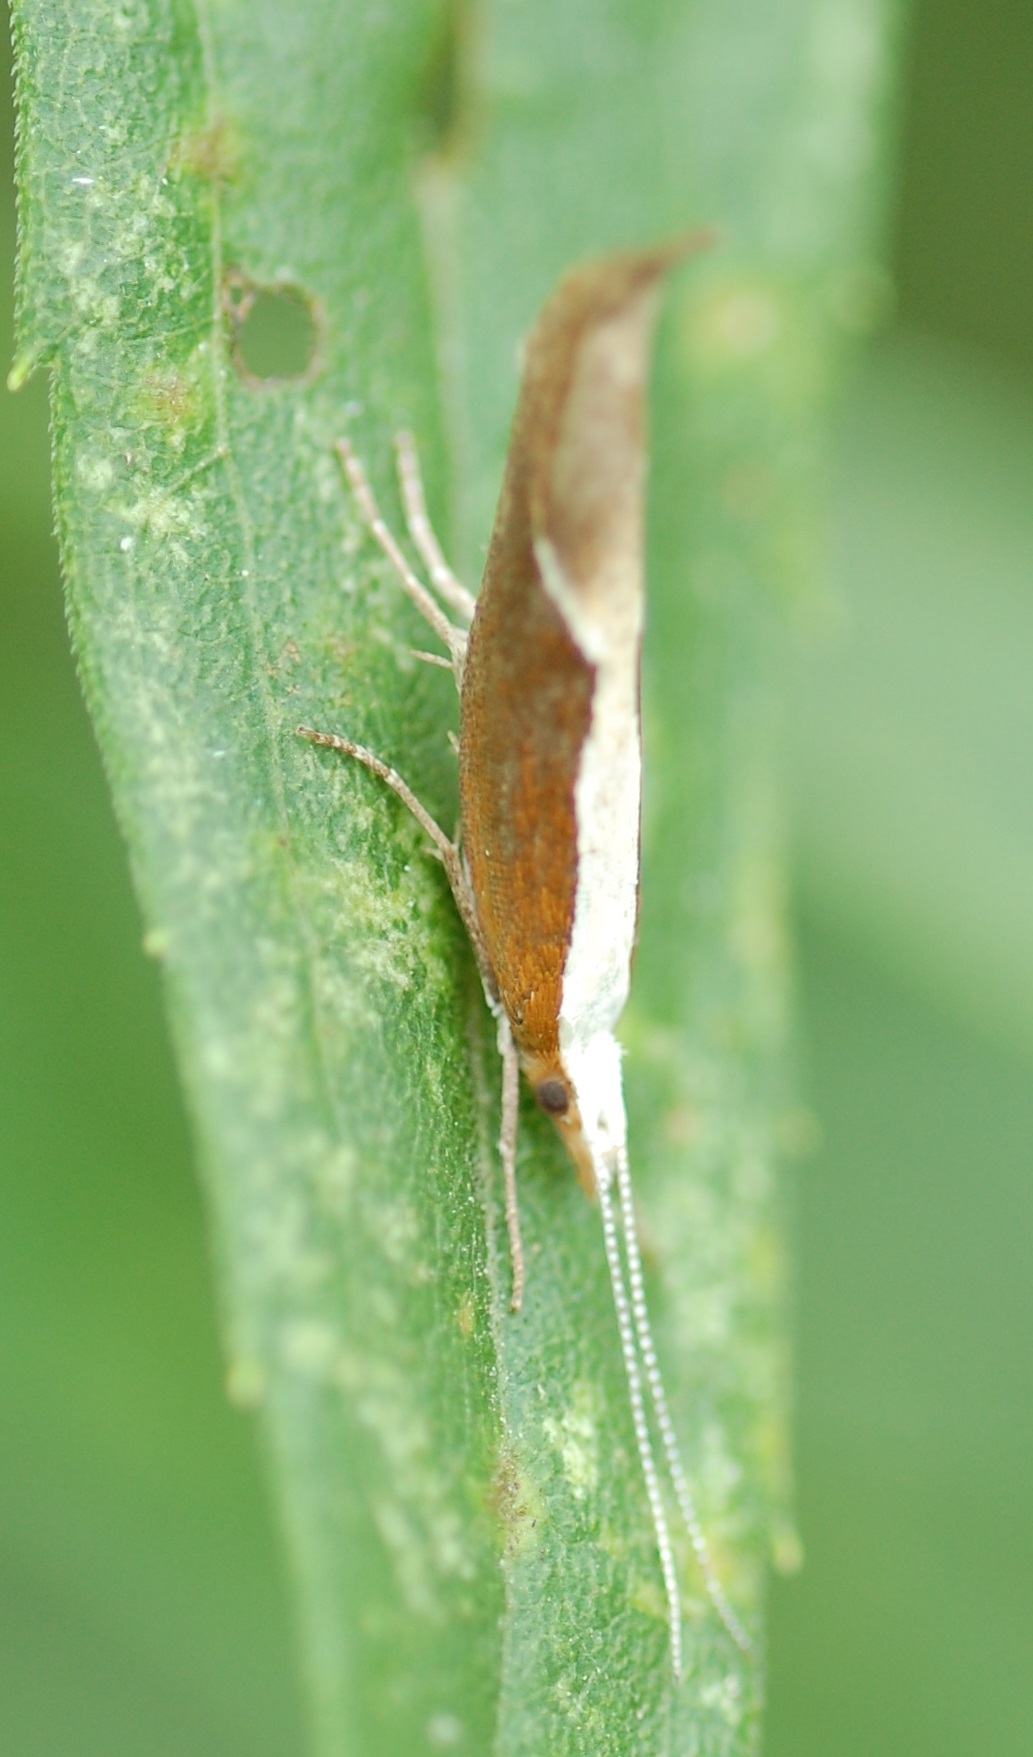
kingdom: Animalia
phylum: Arthropoda
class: Insecta
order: Lepidoptera
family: Ypsolophidae
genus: Ypsolopha
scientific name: Ypsolopha dentella
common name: Honeysuckle moth
